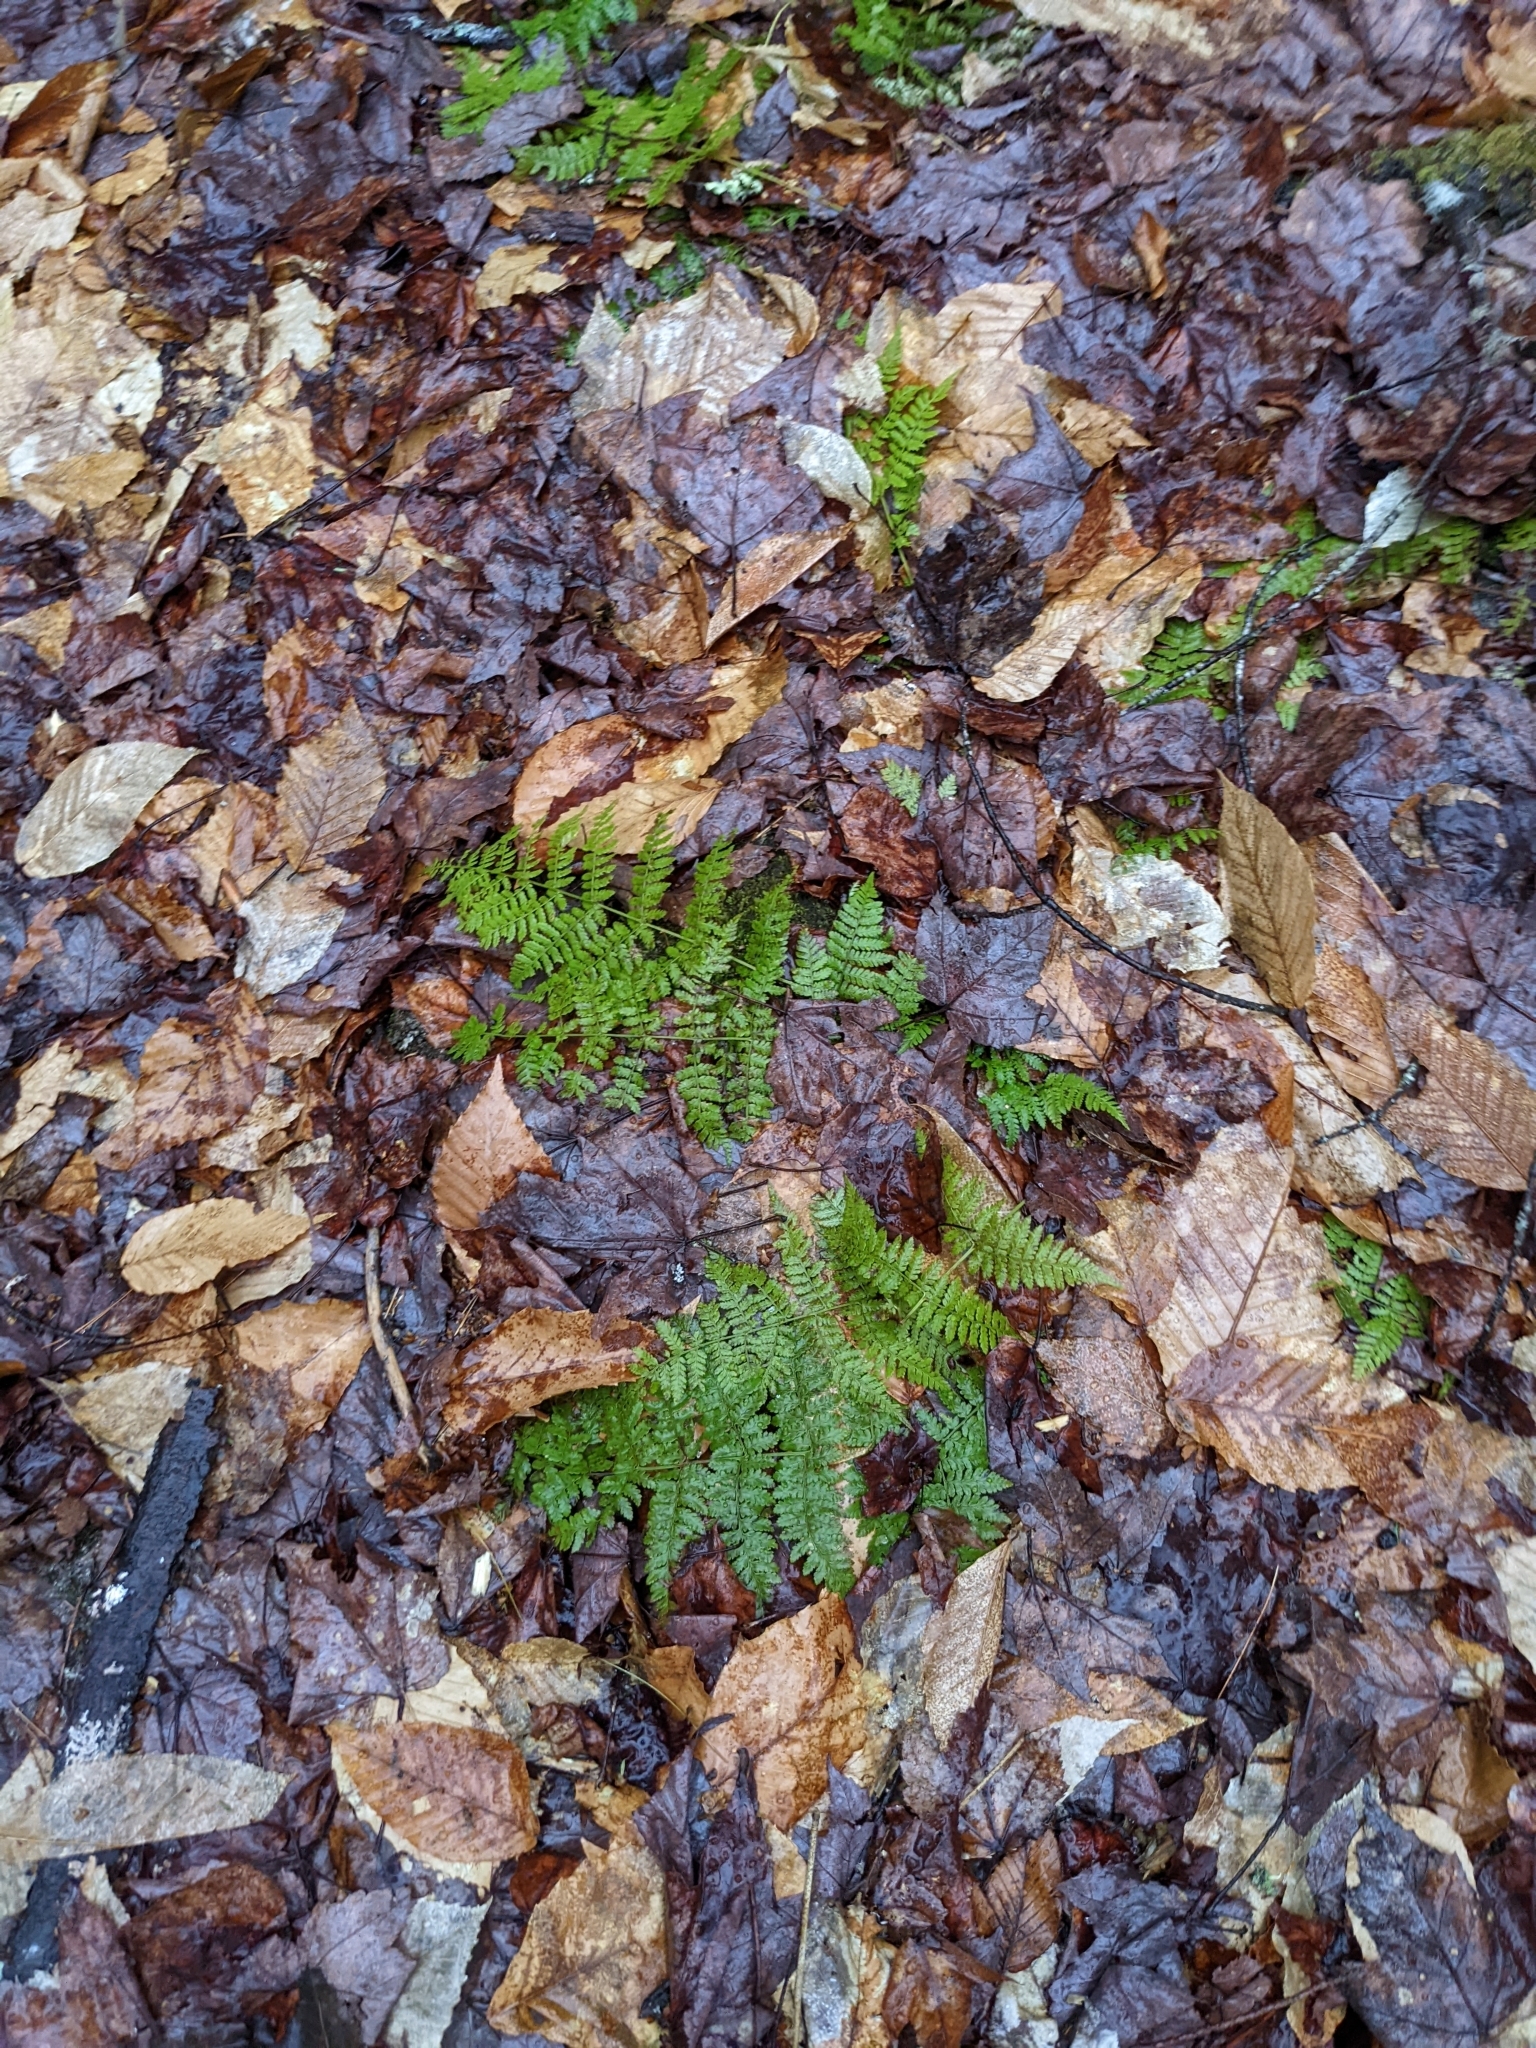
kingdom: Plantae
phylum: Tracheophyta
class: Polypodiopsida
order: Polypodiales
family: Dryopteridaceae
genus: Dryopteris
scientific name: Dryopteris intermedia
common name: Evergreen wood fern
